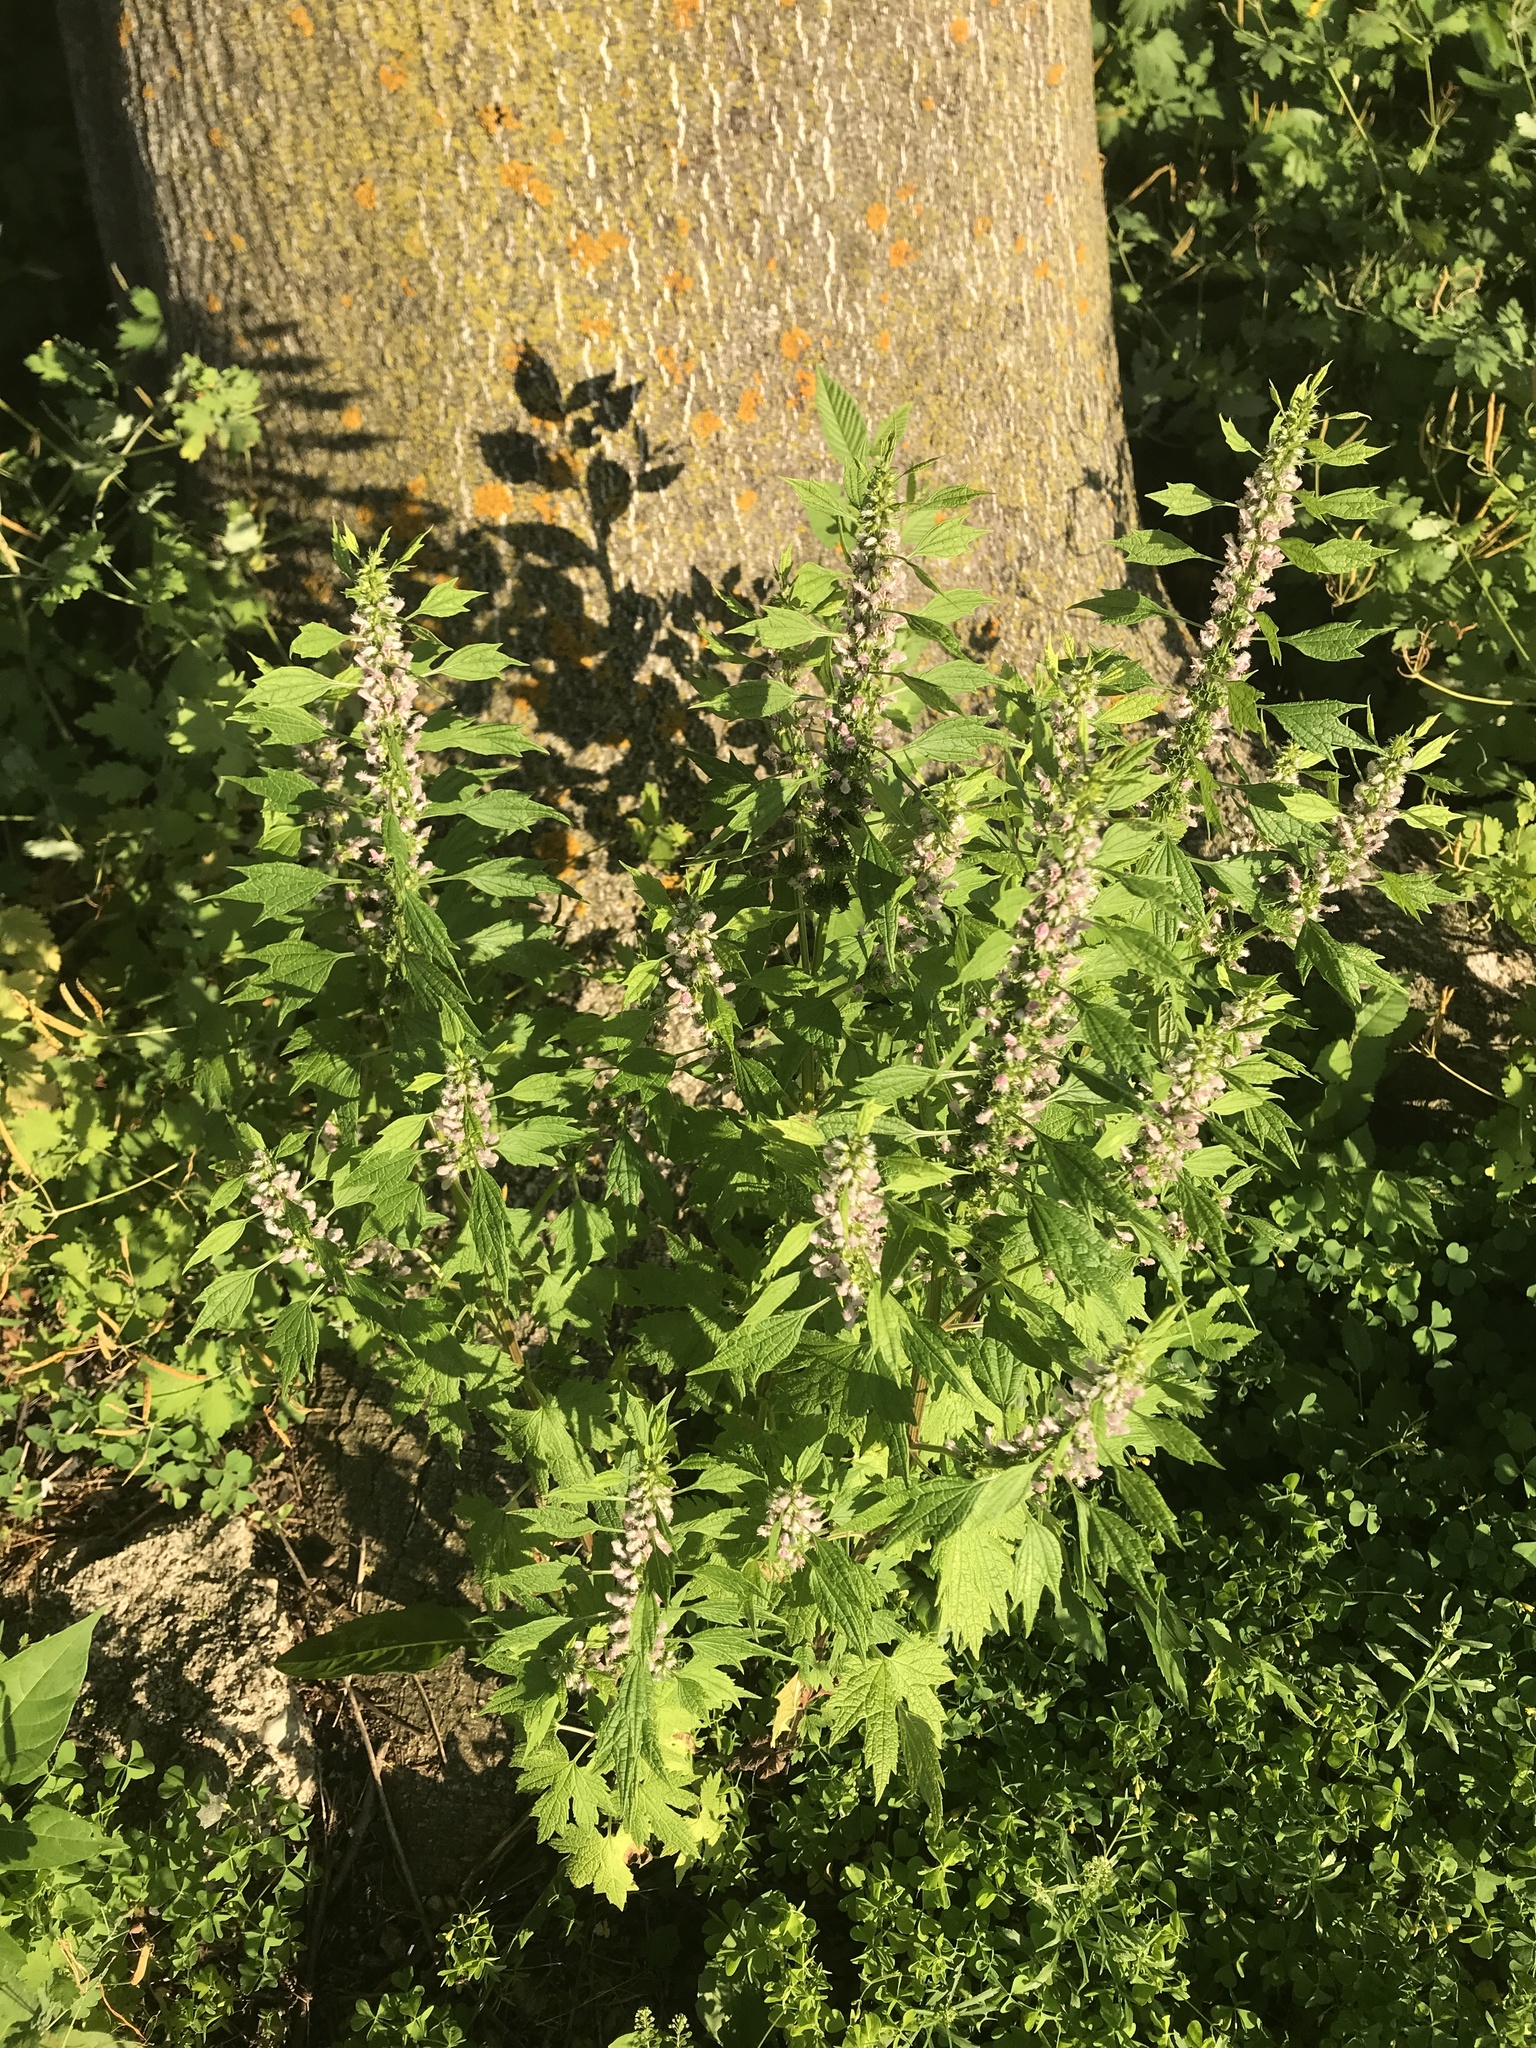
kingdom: Plantae
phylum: Tracheophyta
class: Magnoliopsida
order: Lamiales
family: Lamiaceae
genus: Leonurus
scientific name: Leonurus cardiaca
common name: Motherwort
